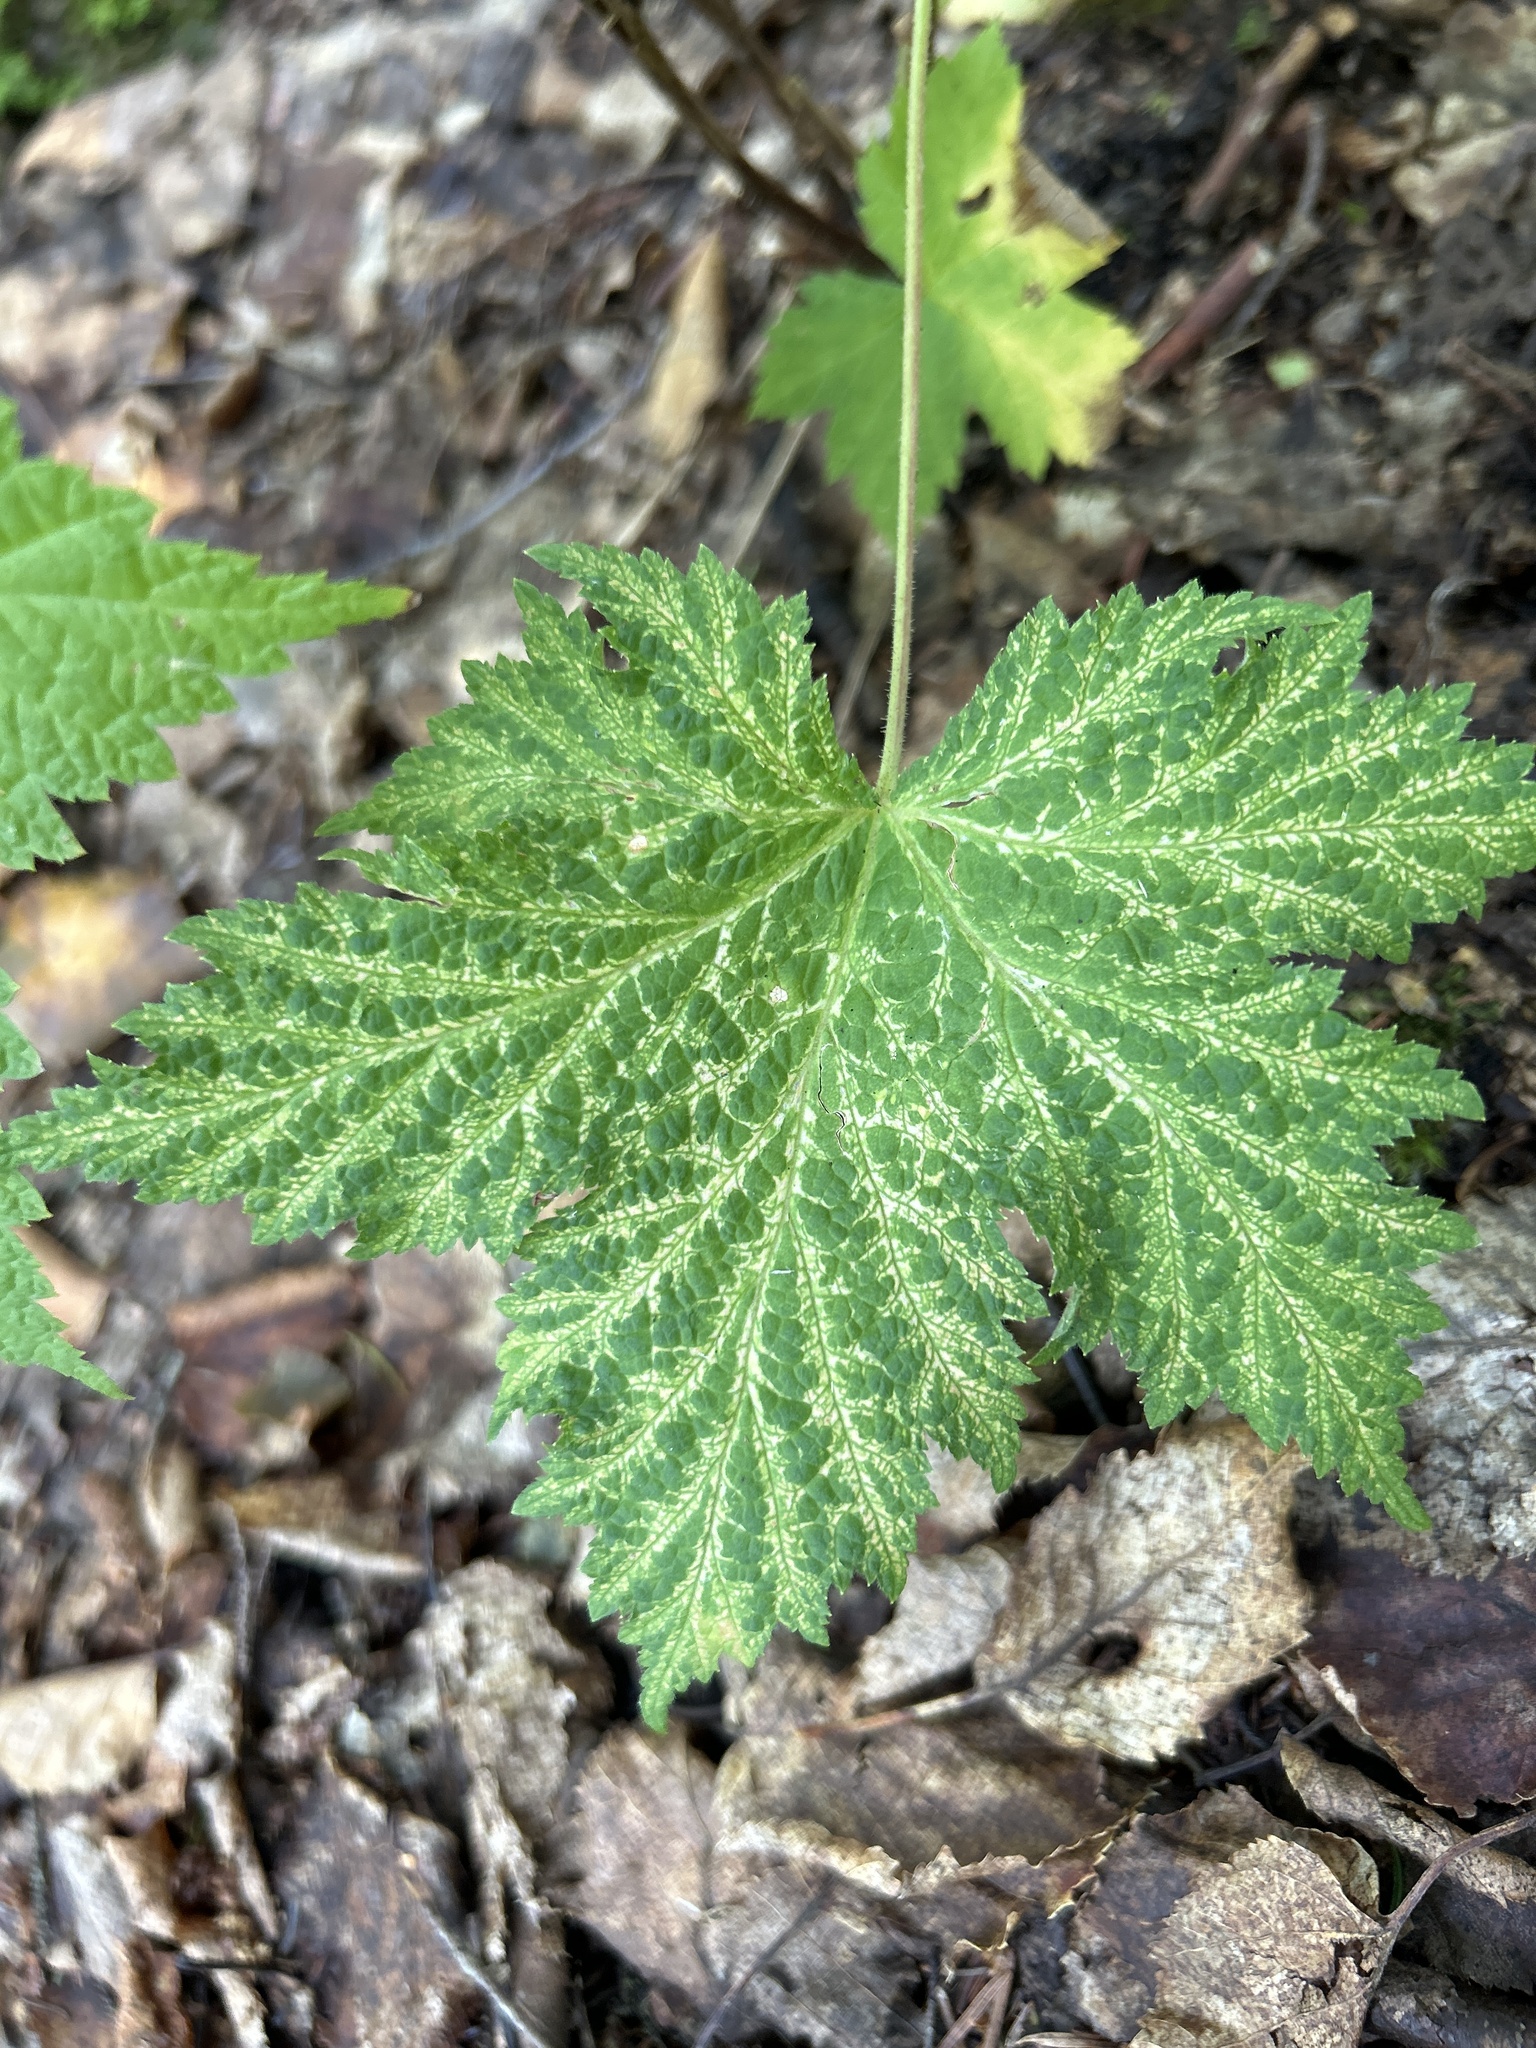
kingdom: Plantae
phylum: Tracheophyta
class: Magnoliopsida
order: Rosales
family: Rosaceae
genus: Rubus
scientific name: Rubus parviflorus
